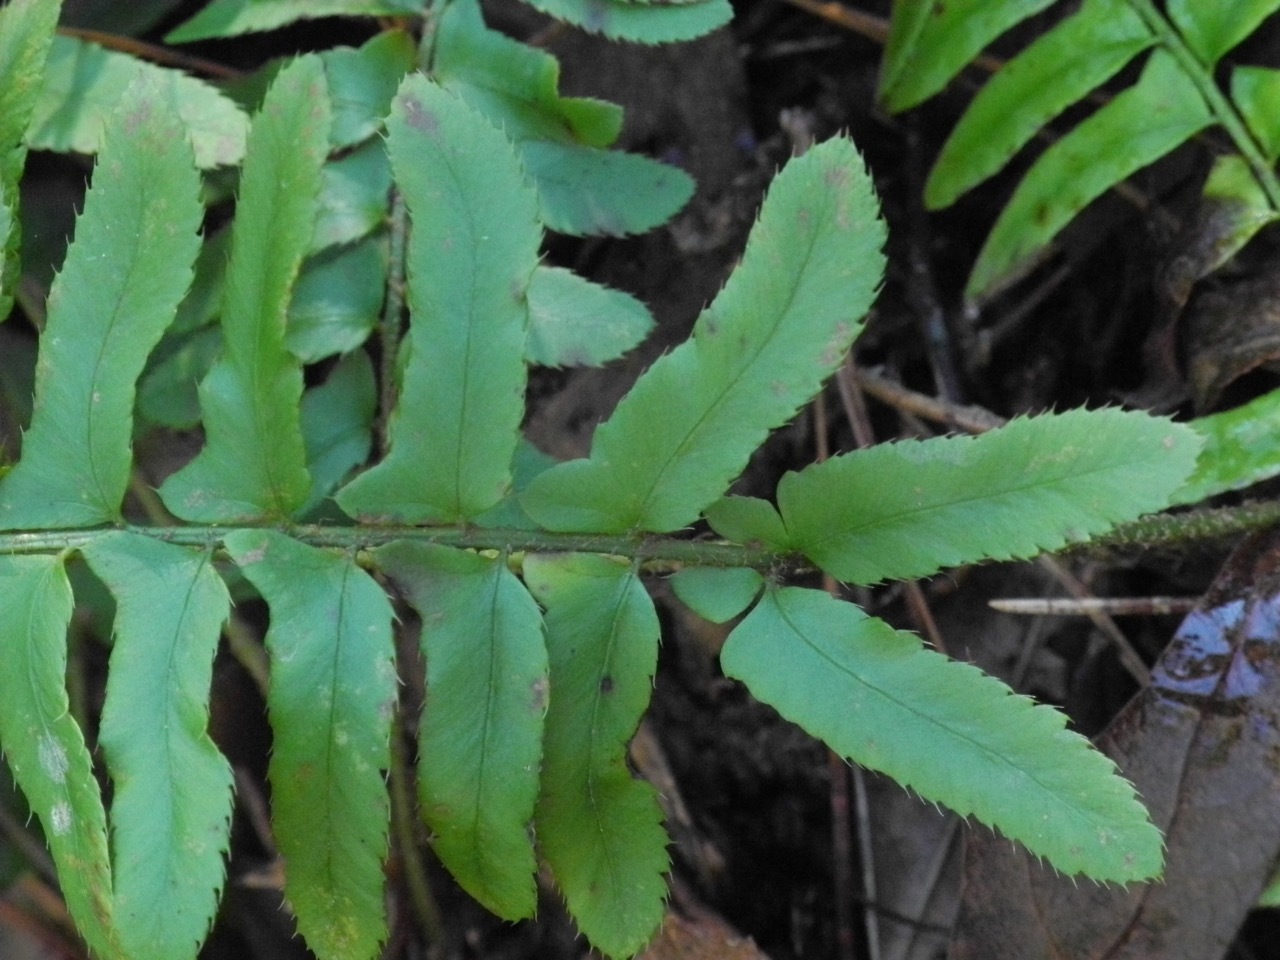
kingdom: Plantae
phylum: Tracheophyta
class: Polypodiopsida
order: Polypodiales
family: Dryopteridaceae
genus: Polystichum
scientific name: Polystichum acrostichoides
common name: Christmas fern
